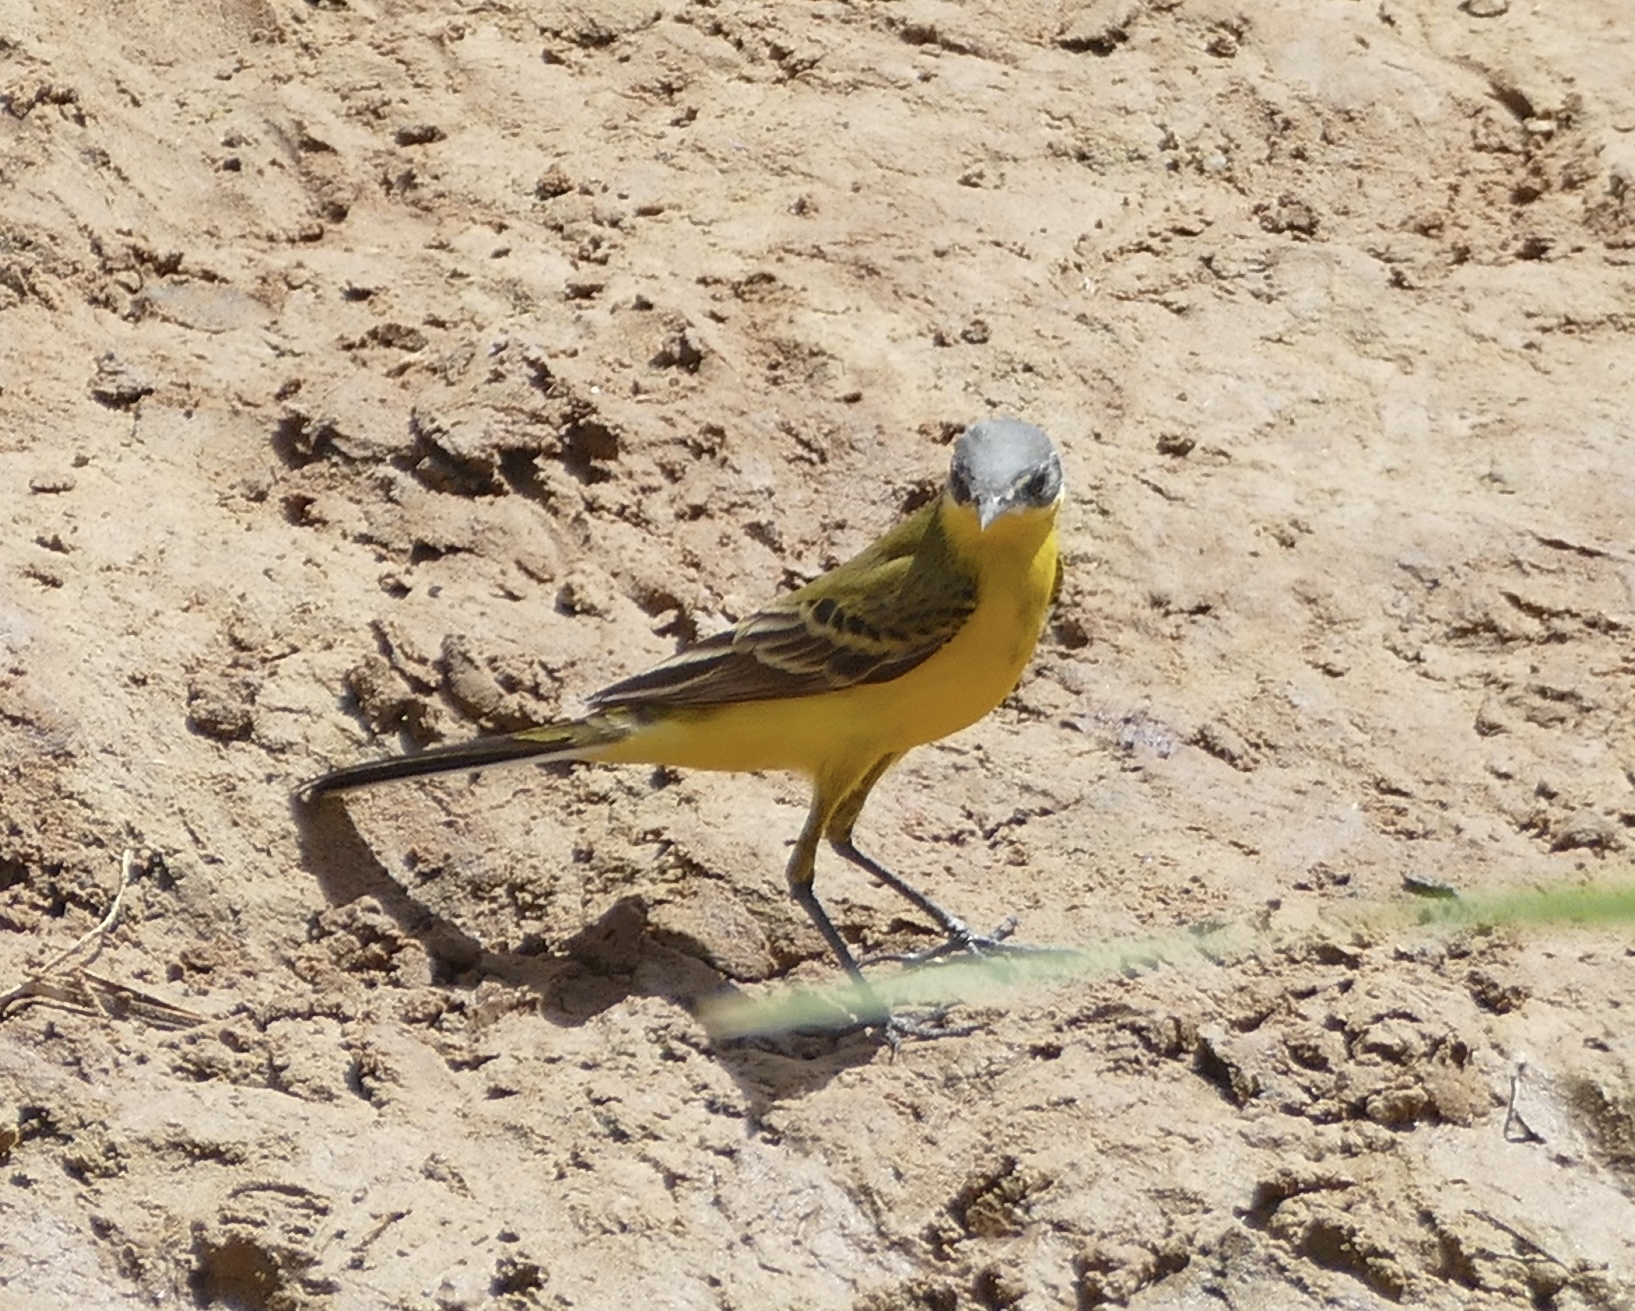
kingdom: Animalia
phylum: Chordata
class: Aves
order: Passeriformes
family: Motacillidae
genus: Motacilla
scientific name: Motacilla flava
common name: Western yellow wagtail
